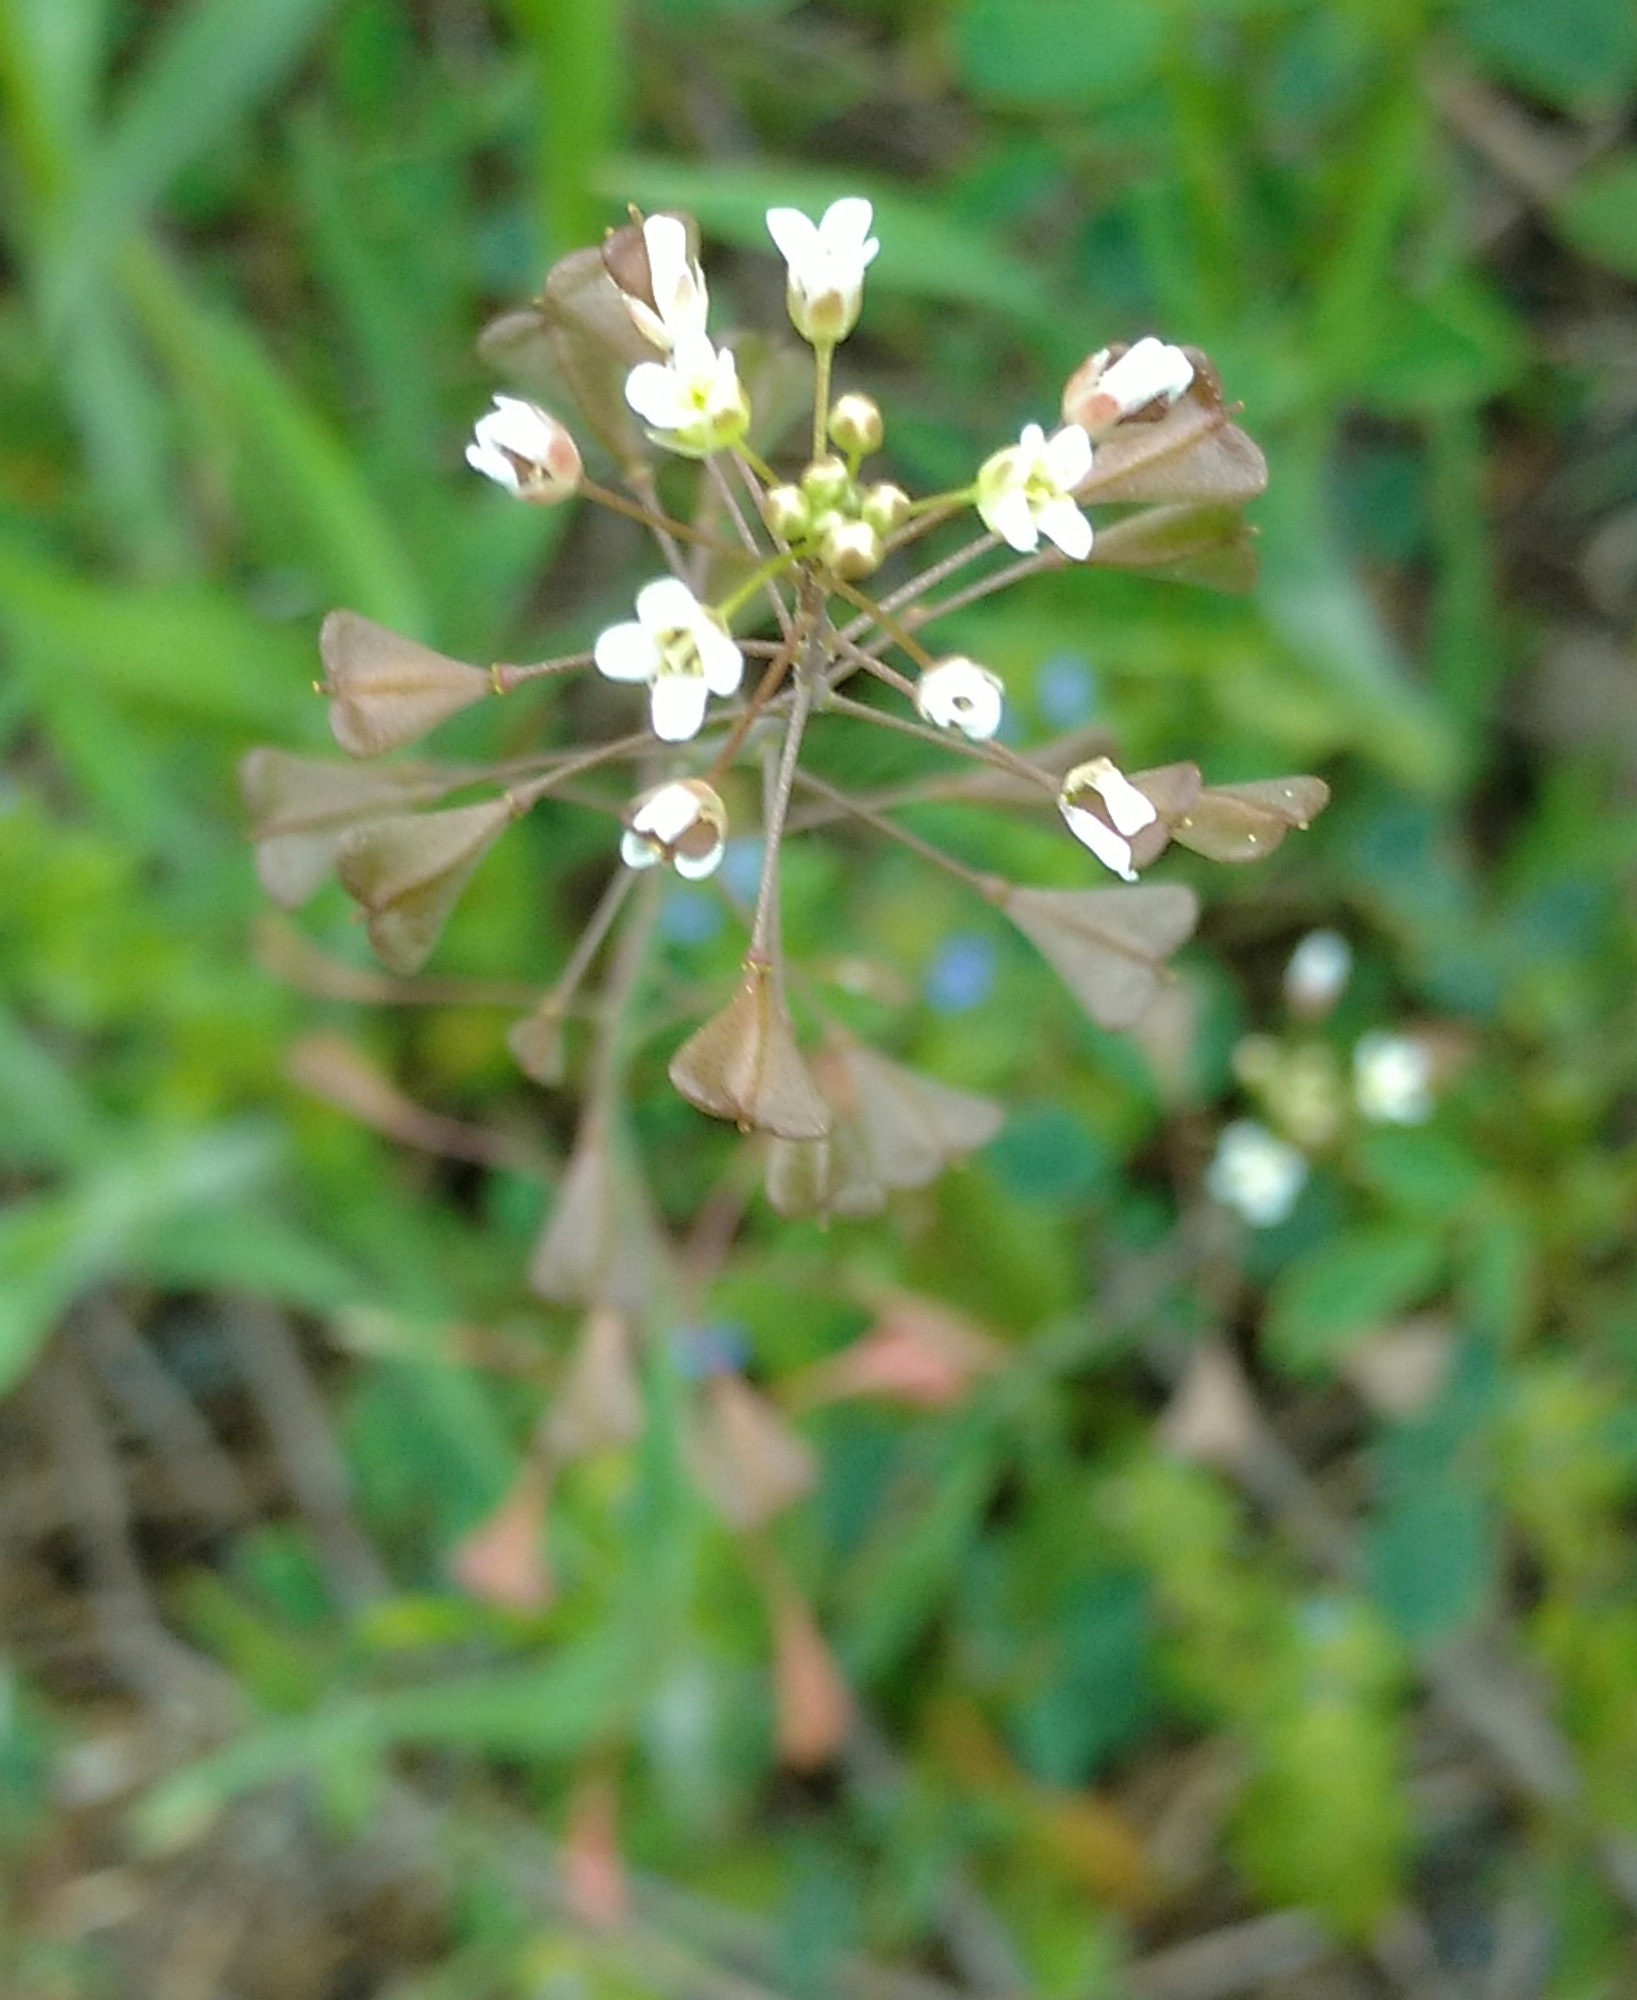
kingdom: Plantae
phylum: Tracheophyta
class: Magnoliopsida
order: Brassicales
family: Brassicaceae
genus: Capsella
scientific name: Capsella bursa-pastoris
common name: Shepherd's purse
